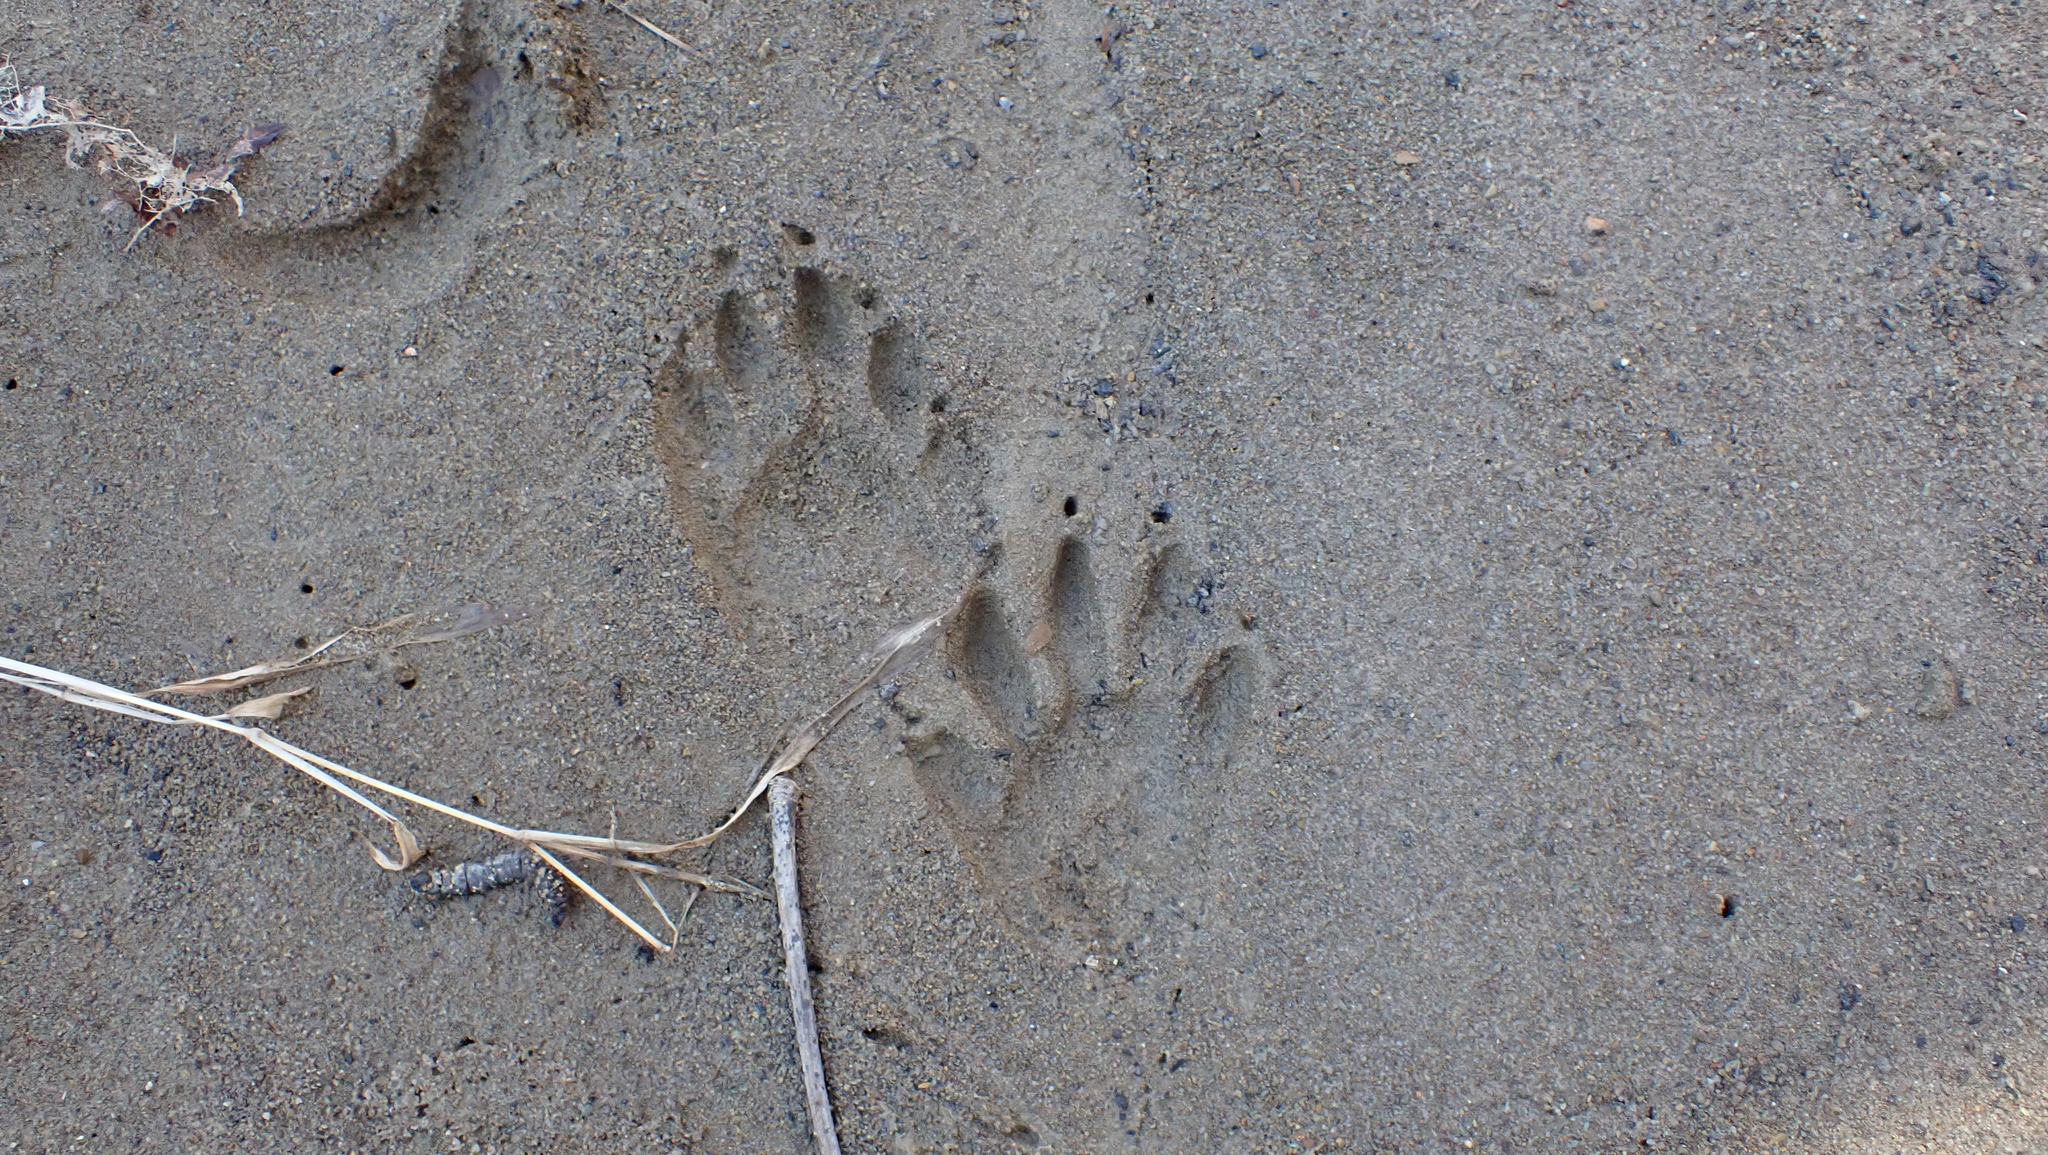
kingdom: Animalia
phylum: Chordata
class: Mammalia
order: Carnivora
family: Procyonidae
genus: Procyon
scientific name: Procyon lotor
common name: Raccoon
